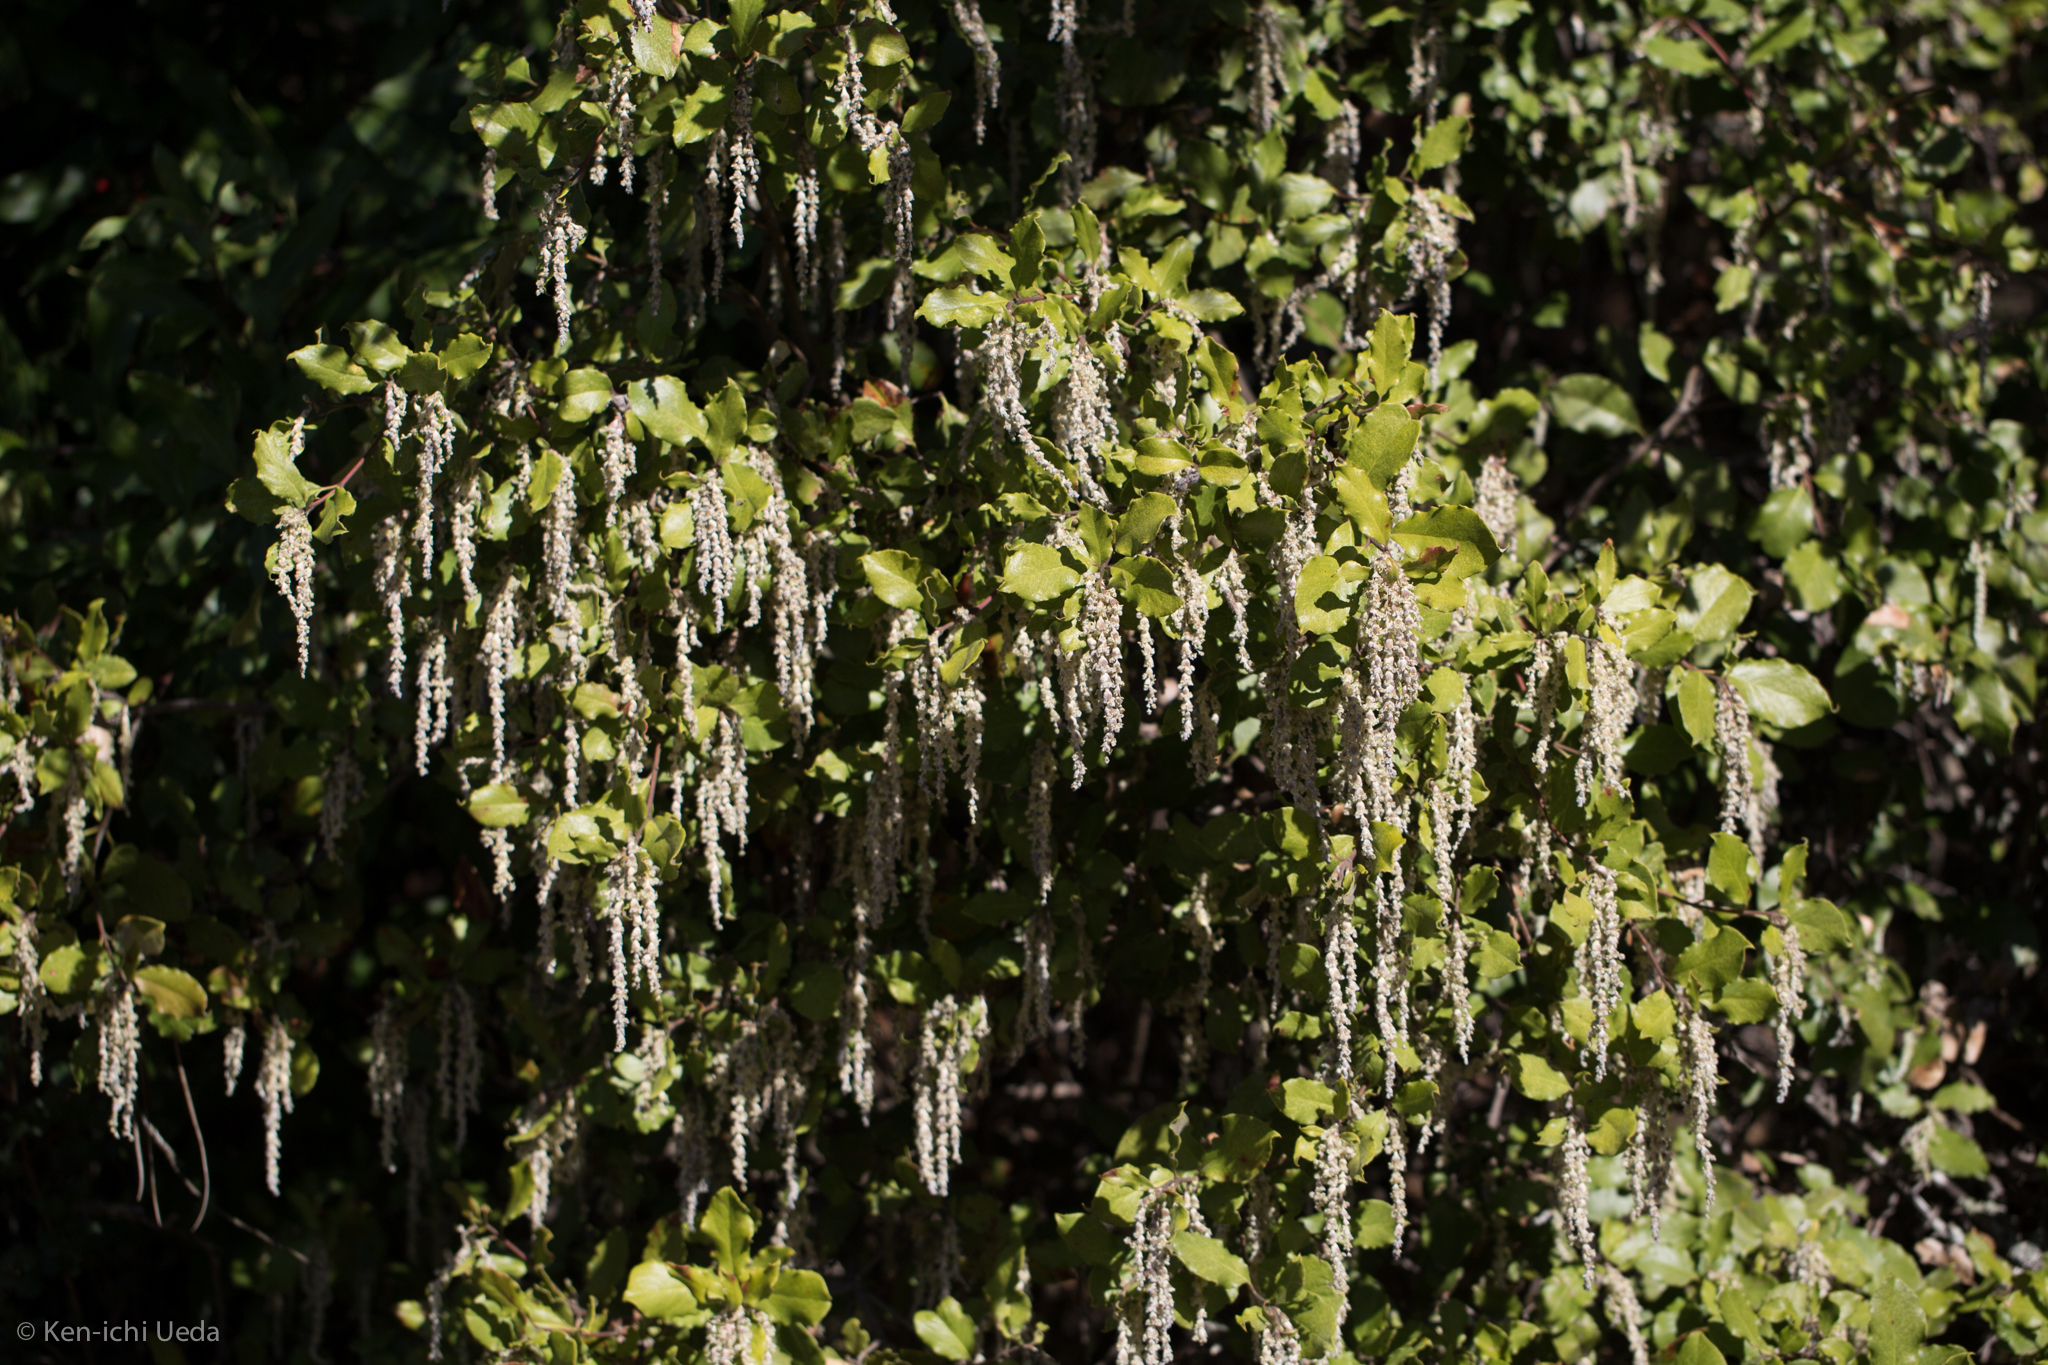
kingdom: Plantae
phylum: Tracheophyta
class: Magnoliopsida
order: Garryales
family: Garryaceae
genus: Garrya
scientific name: Garrya elliptica
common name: Silk-tassel
